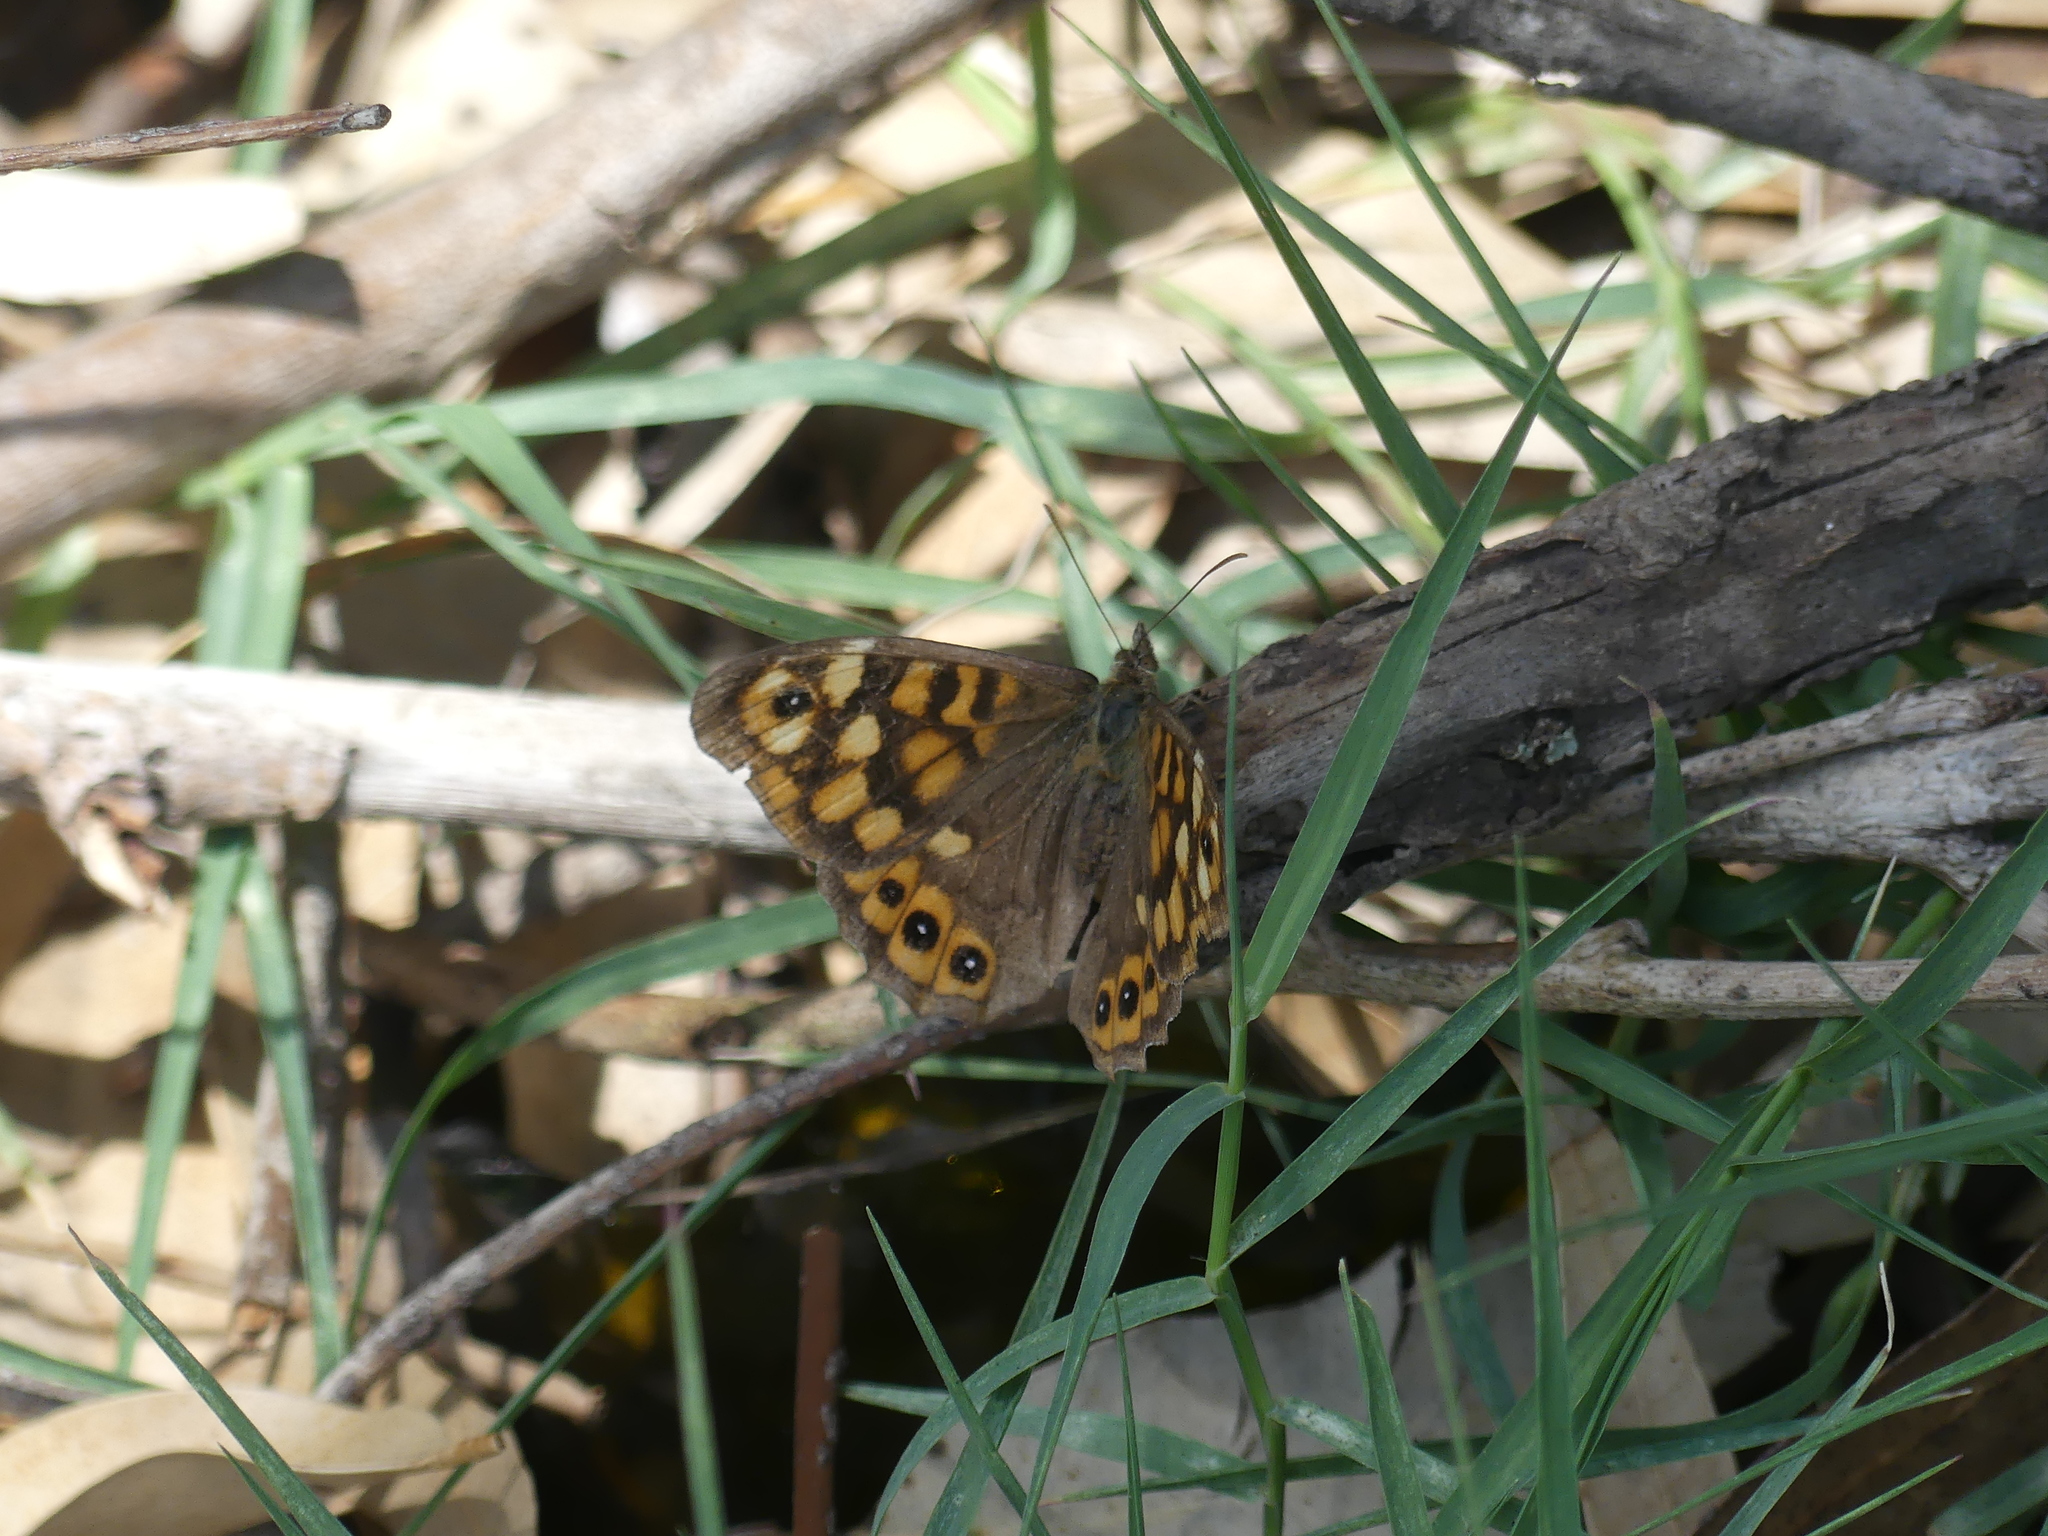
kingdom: Animalia
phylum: Arthropoda
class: Insecta
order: Lepidoptera
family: Nymphalidae
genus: Pararge
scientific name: Pararge aegeria
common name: Speckled wood
